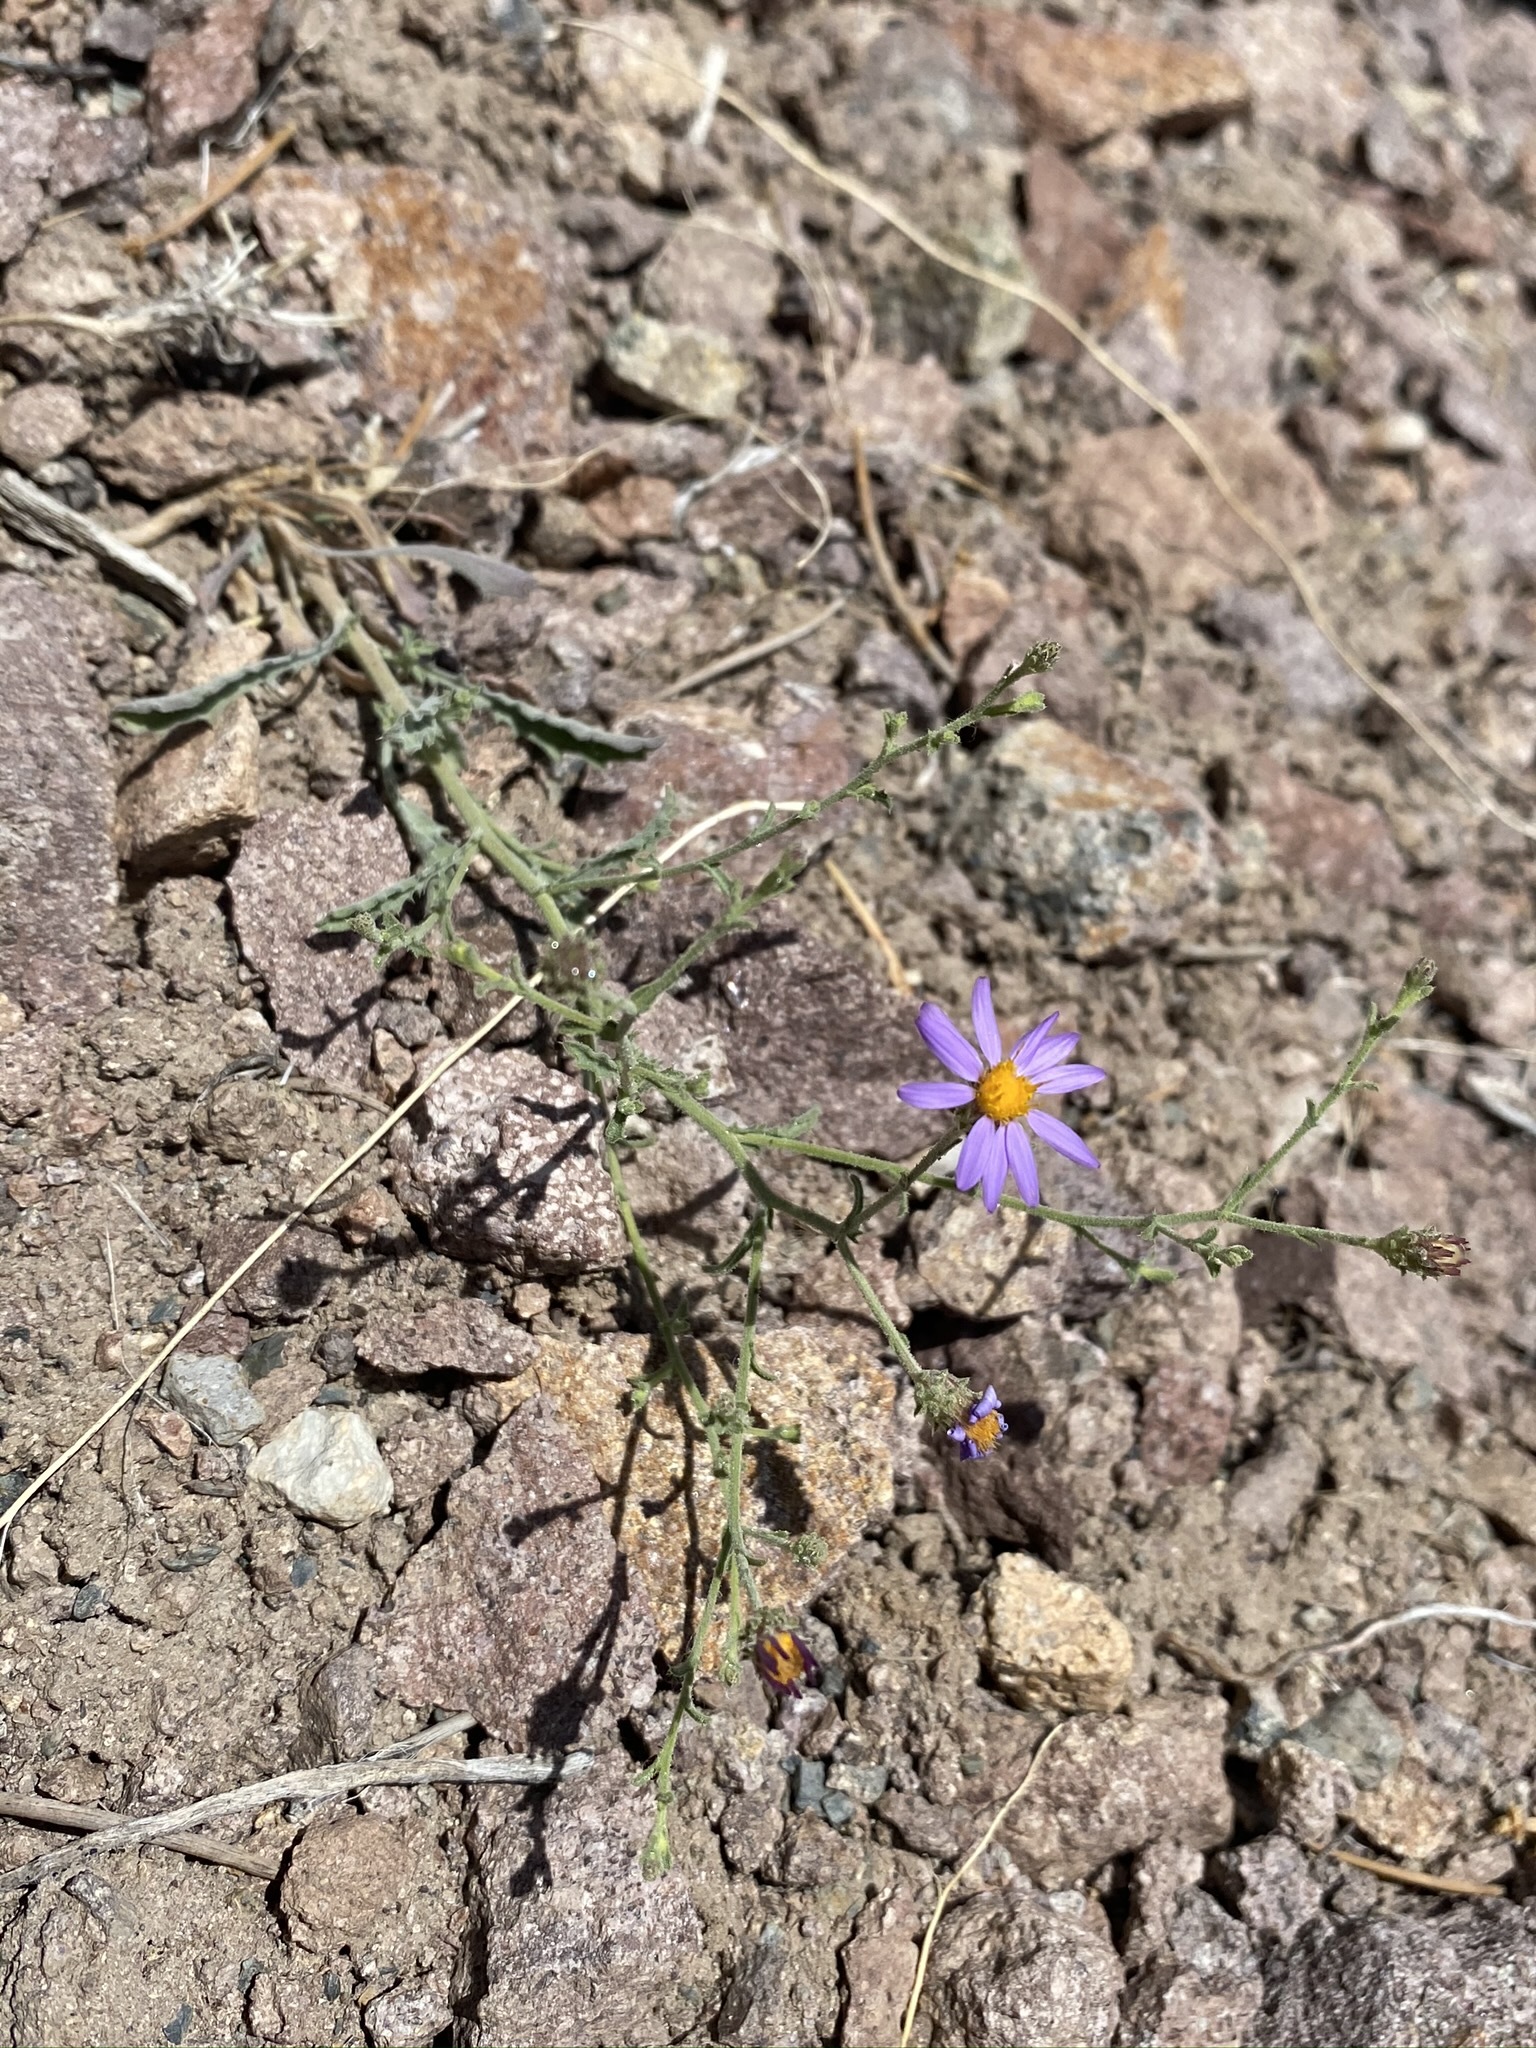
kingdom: Plantae
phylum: Tracheophyta
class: Magnoliopsida
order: Asterales
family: Asteraceae
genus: Dieteria
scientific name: Dieteria canescens
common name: Hoary-aster
